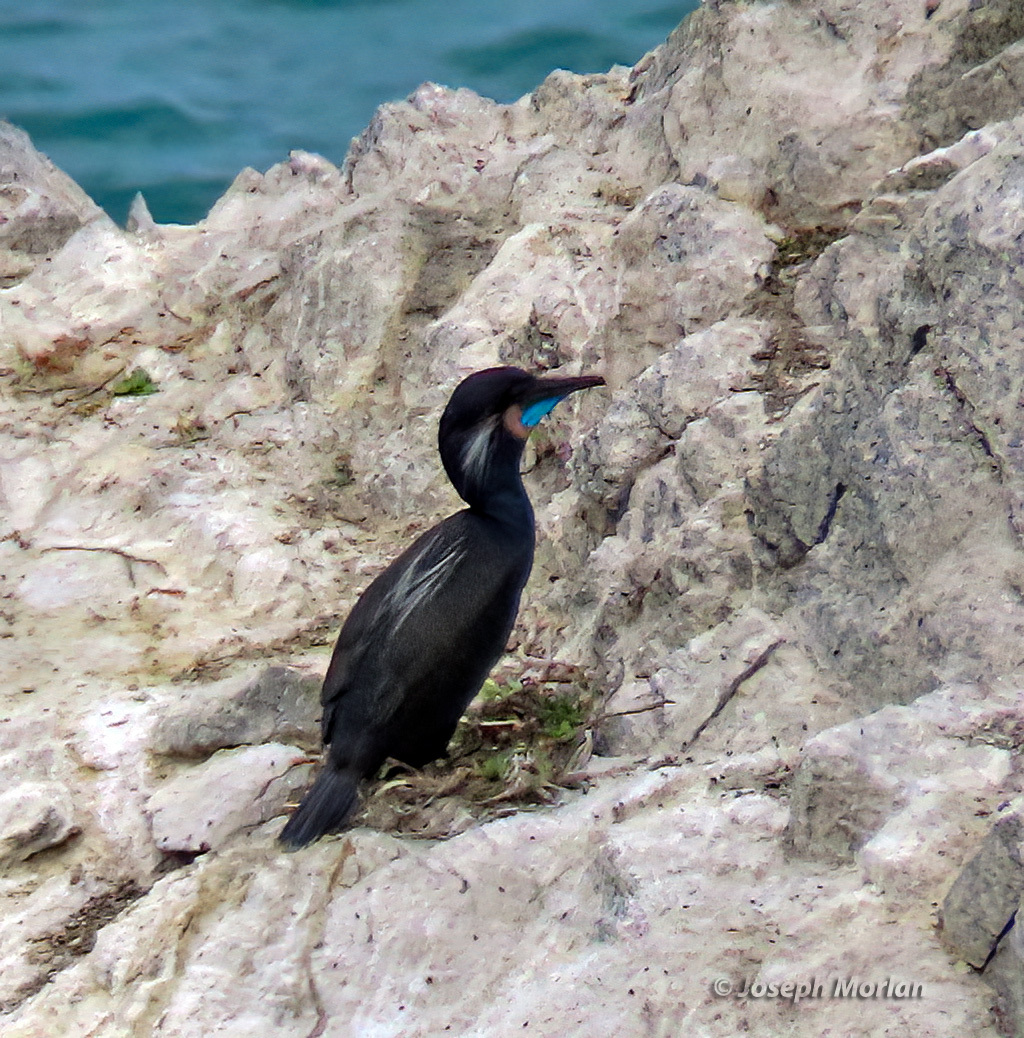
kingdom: Animalia
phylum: Chordata
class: Aves
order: Suliformes
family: Phalacrocoracidae
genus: Urile
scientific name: Urile penicillatus
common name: Brandt's cormorant
